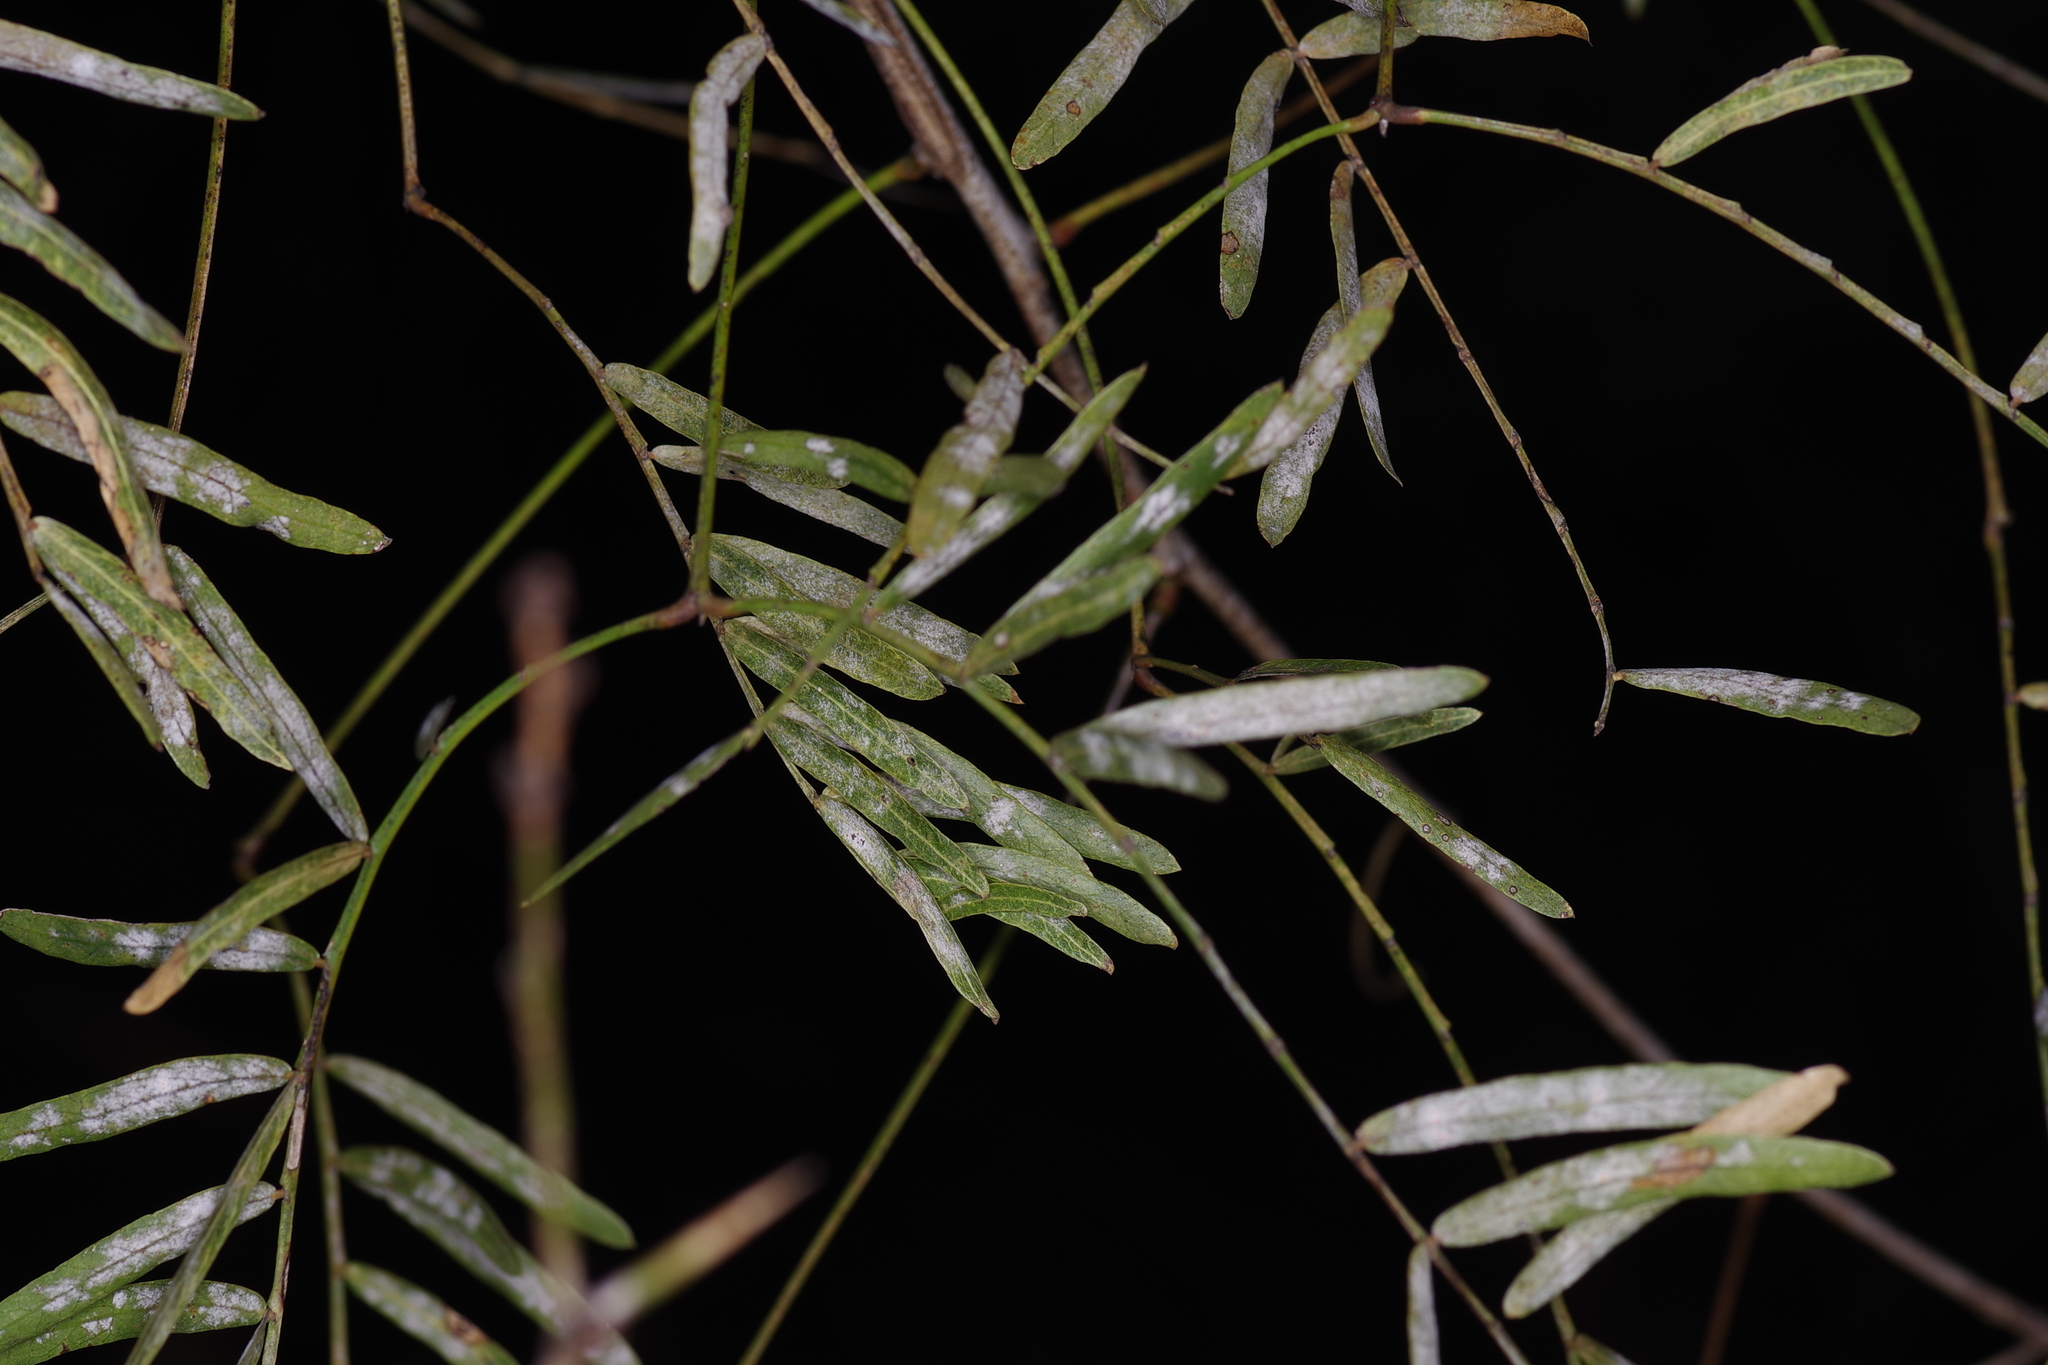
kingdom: Plantae
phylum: Tracheophyta
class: Magnoliopsida
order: Fabales
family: Fabaceae
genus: Prosopis
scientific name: Prosopis glandulosa
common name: Honey mesquite
